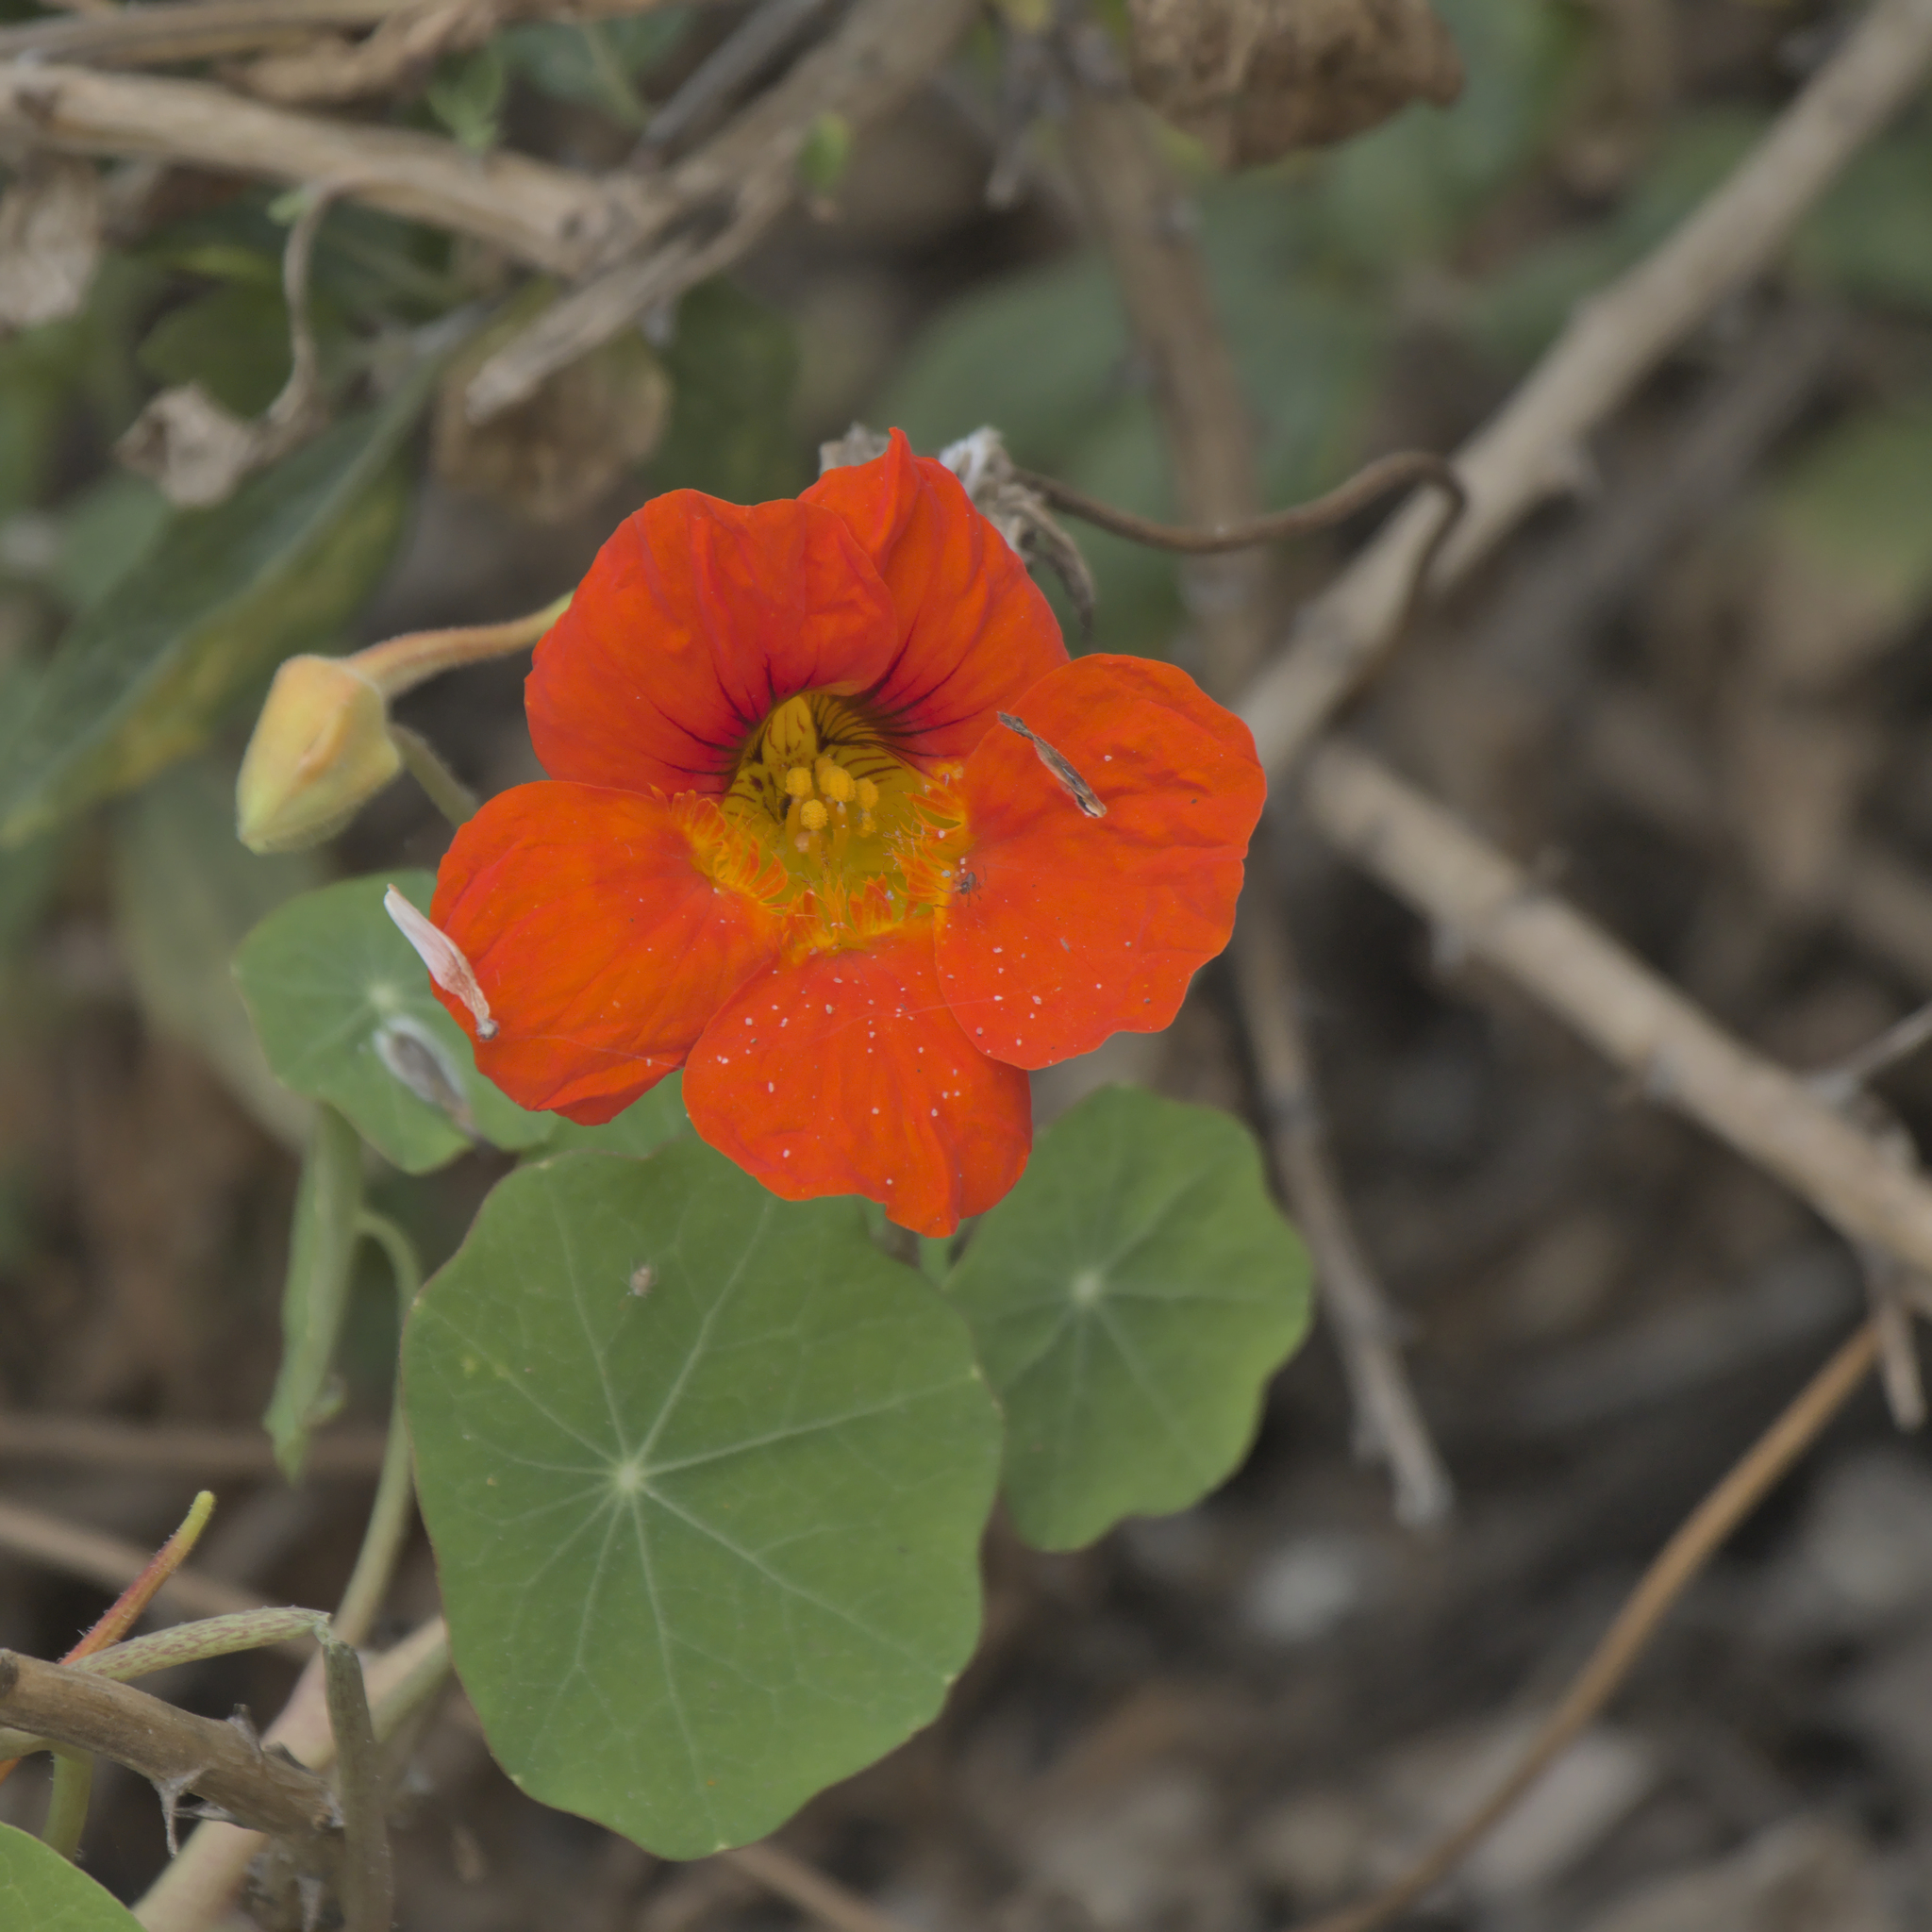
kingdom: Plantae
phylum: Tracheophyta
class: Magnoliopsida
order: Brassicales
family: Tropaeolaceae
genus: Tropaeolum
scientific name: Tropaeolum majus
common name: Nasturtium
